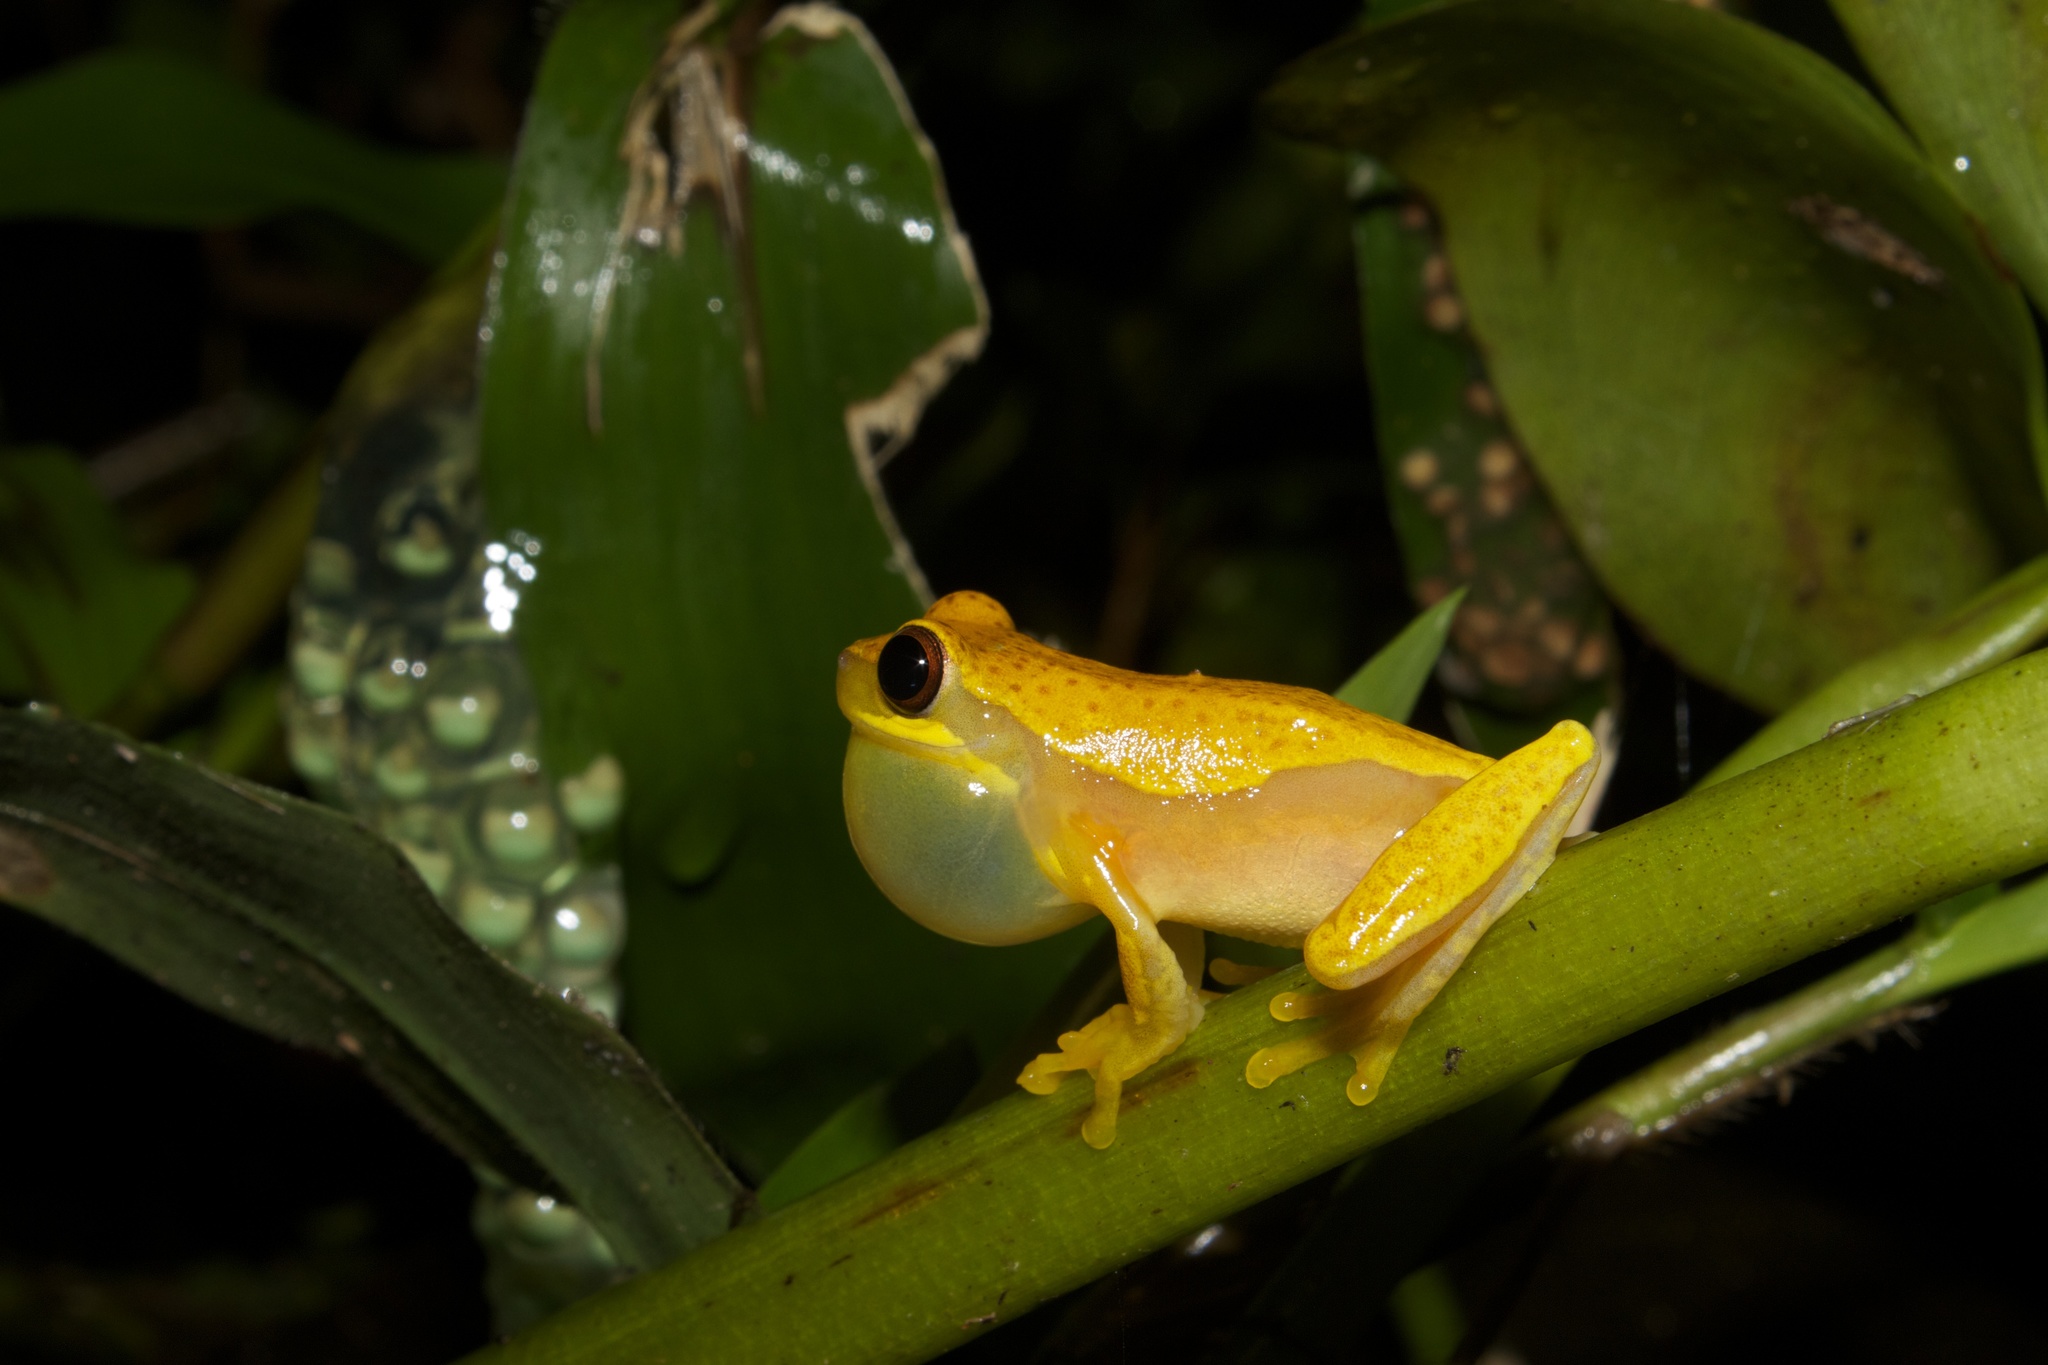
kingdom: Animalia
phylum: Chordata
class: Amphibia
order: Anura
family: Hylidae
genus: Dendropsophus
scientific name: Dendropsophus ebraccatus
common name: Hourglass treefrog
